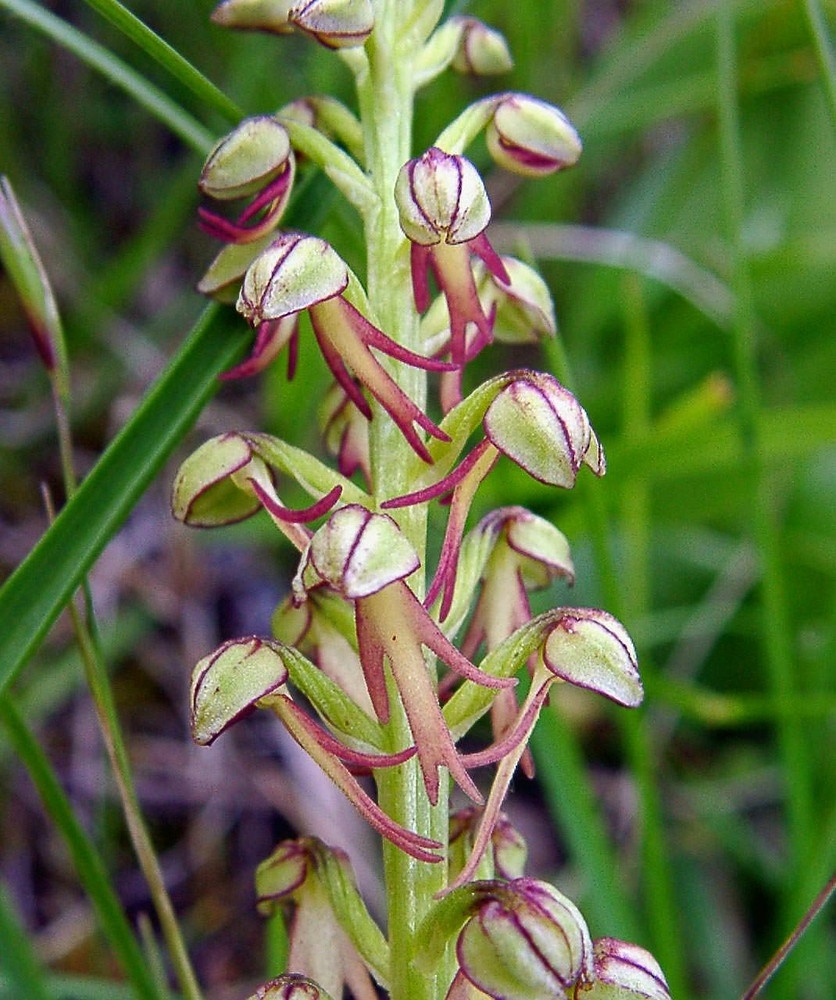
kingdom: Plantae
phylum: Tracheophyta
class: Liliopsida
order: Asparagales
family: Orchidaceae
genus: Orchis
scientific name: Orchis anthropophora
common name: Man orchid
